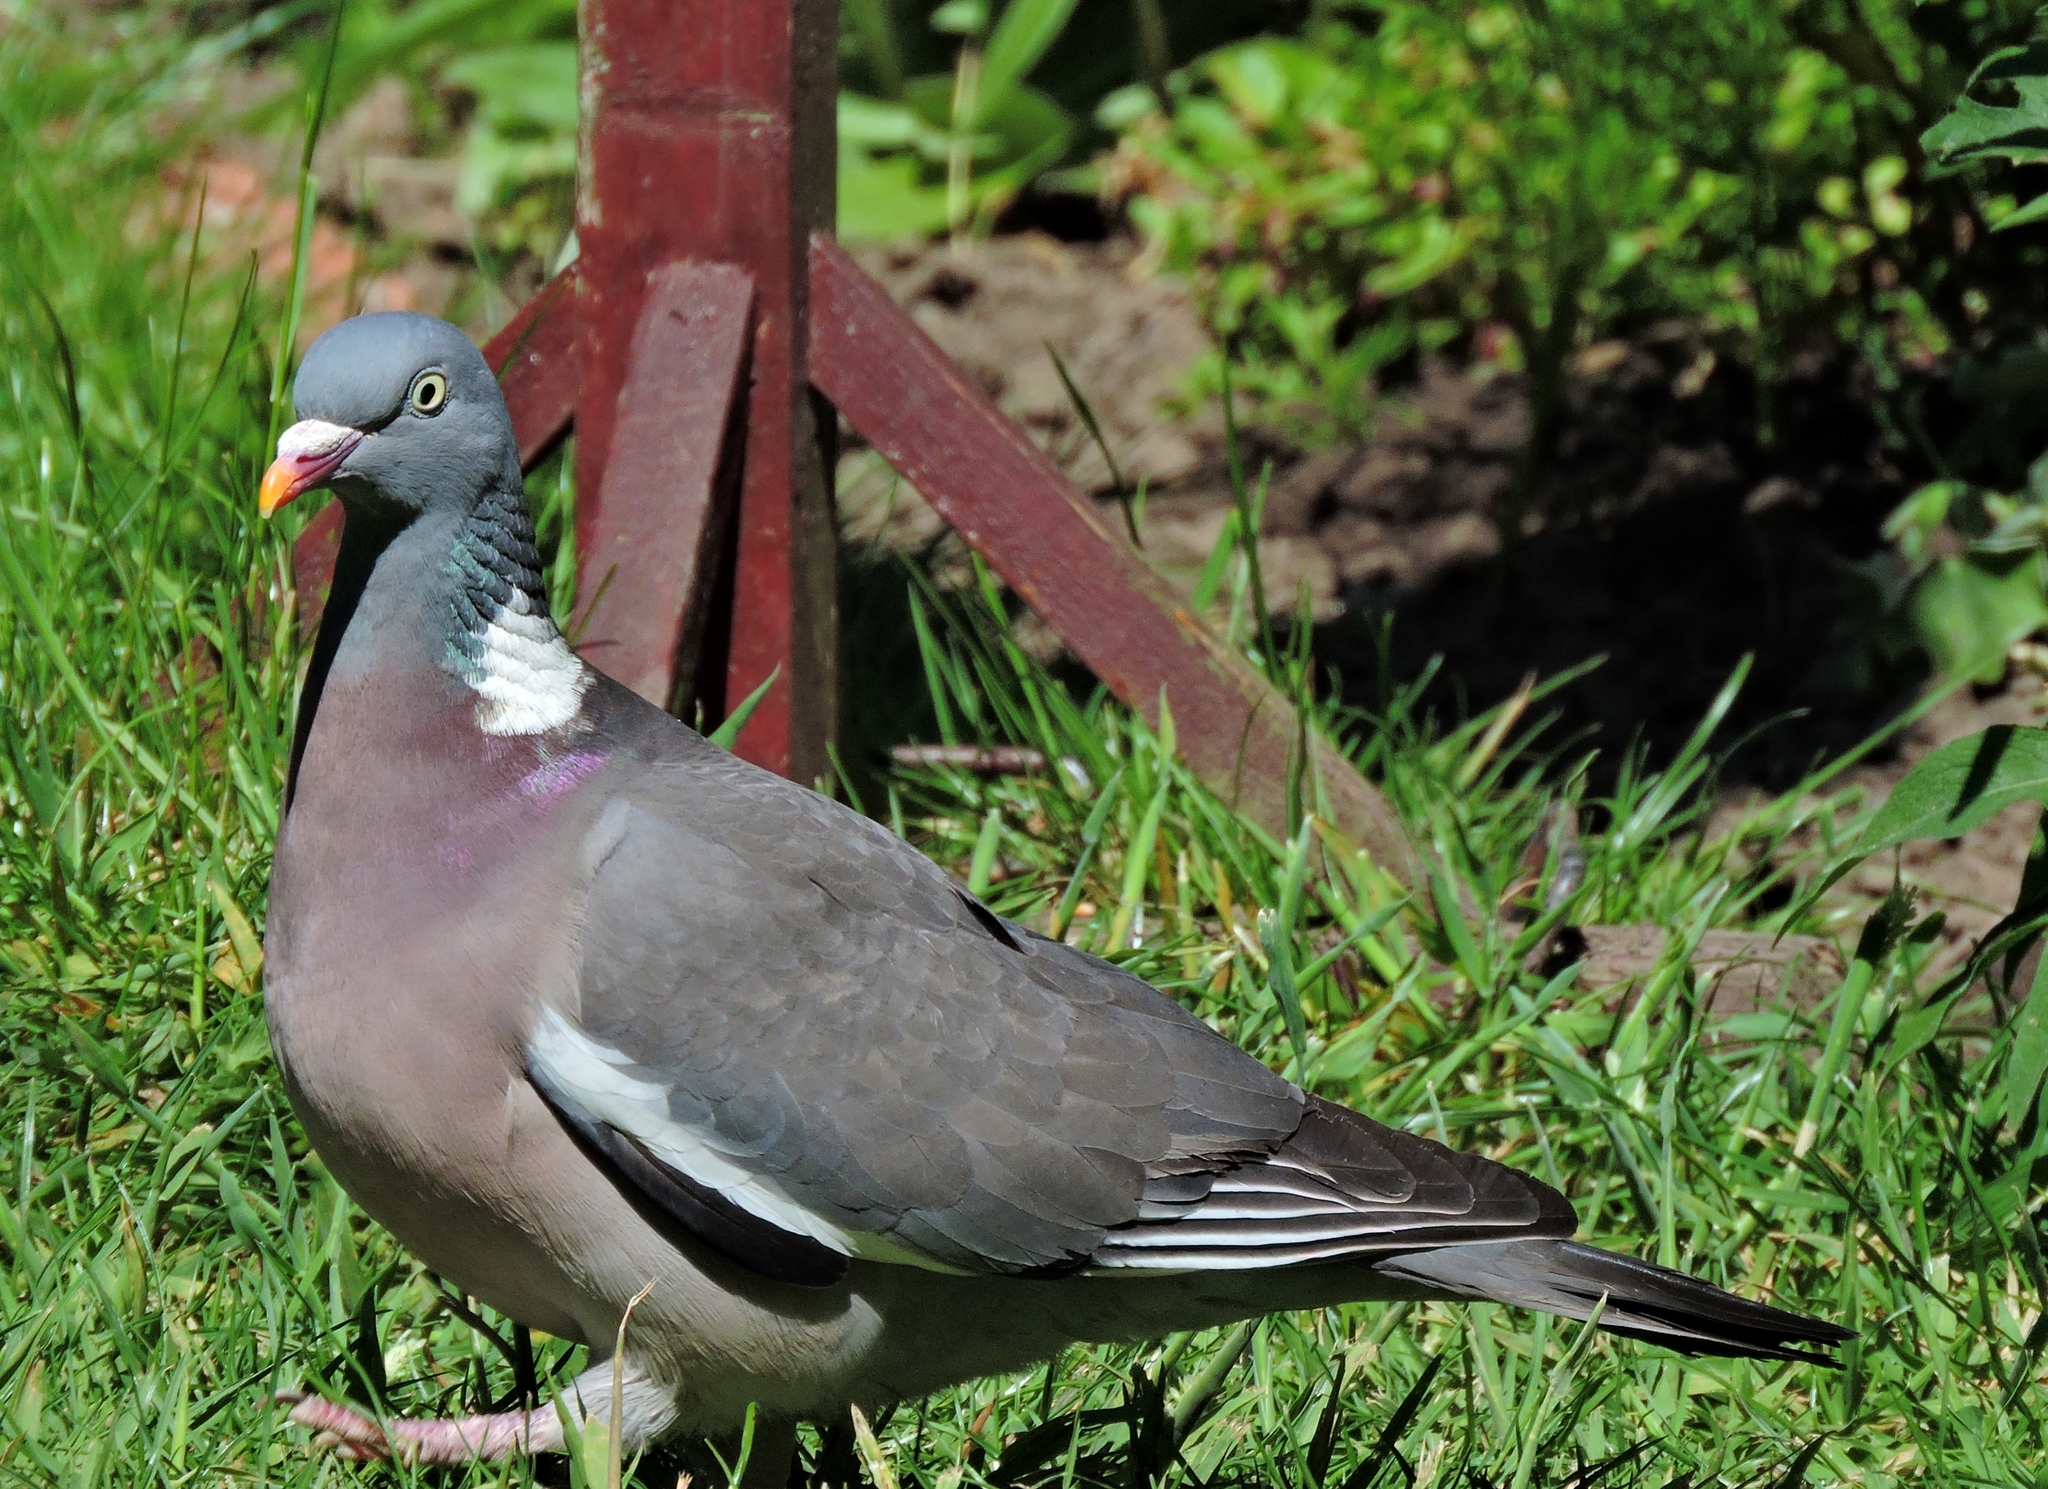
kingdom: Animalia
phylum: Chordata
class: Aves
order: Columbiformes
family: Columbidae
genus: Columba
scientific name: Columba palumbus
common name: Common wood pigeon
